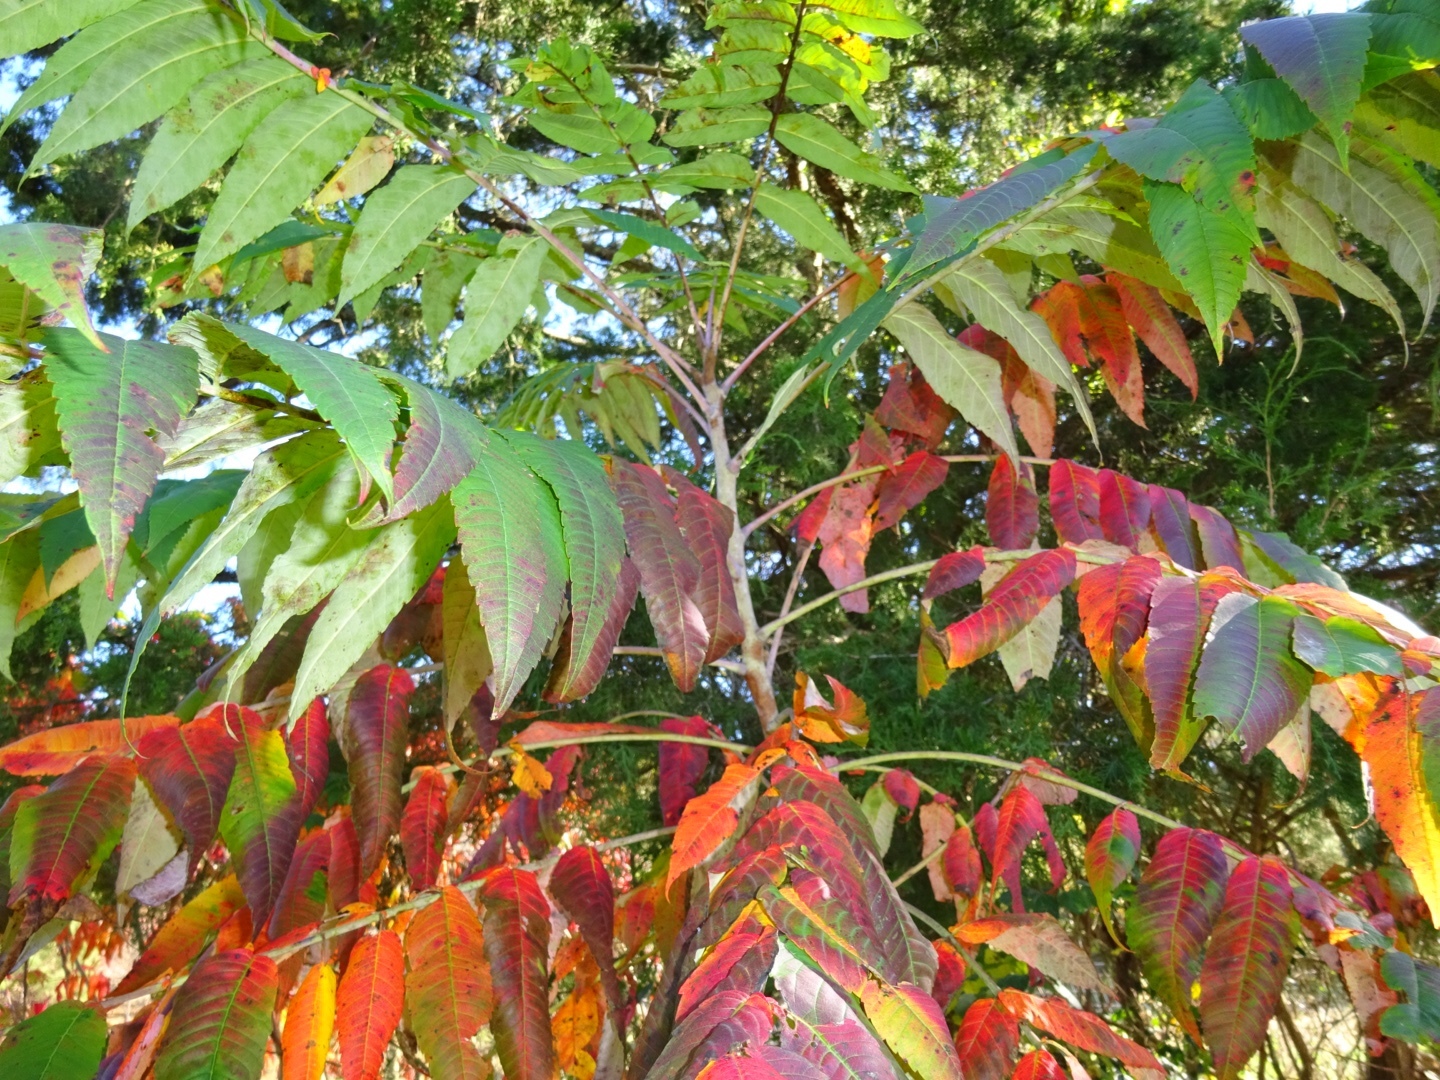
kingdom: Plantae
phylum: Tracheophyta
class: Magnoliopsida
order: Sapindales
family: Anacardiaceae
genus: Rhus
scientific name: Rhus glabra
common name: Scarlet sumac
